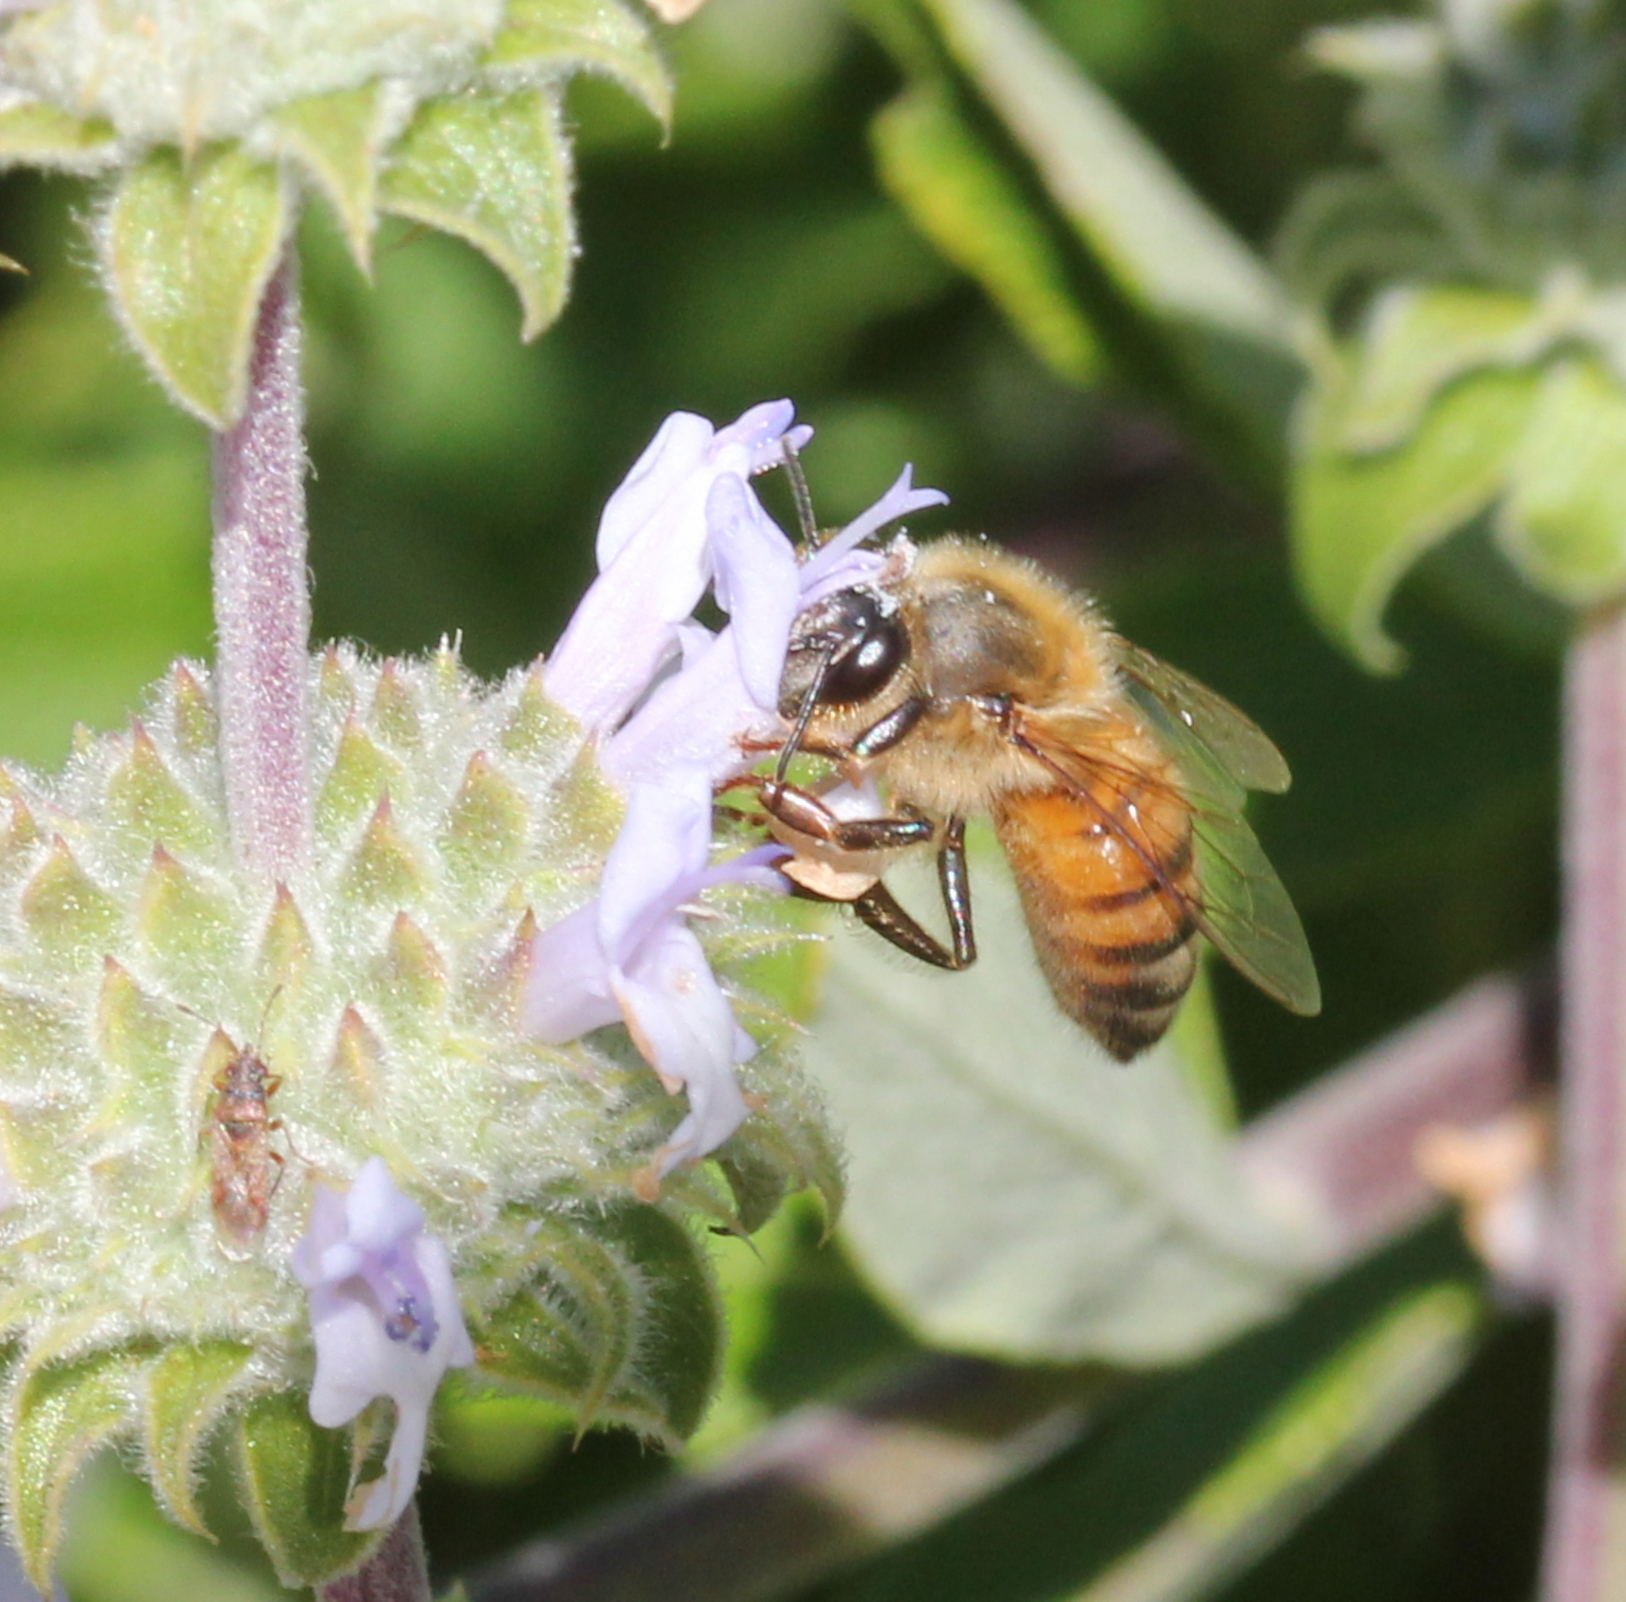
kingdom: Animalia
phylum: Arthropoda
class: Insecta
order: Hymenoptera
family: Apidae
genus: Apis
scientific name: Apis mellifera
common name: Honey bee
